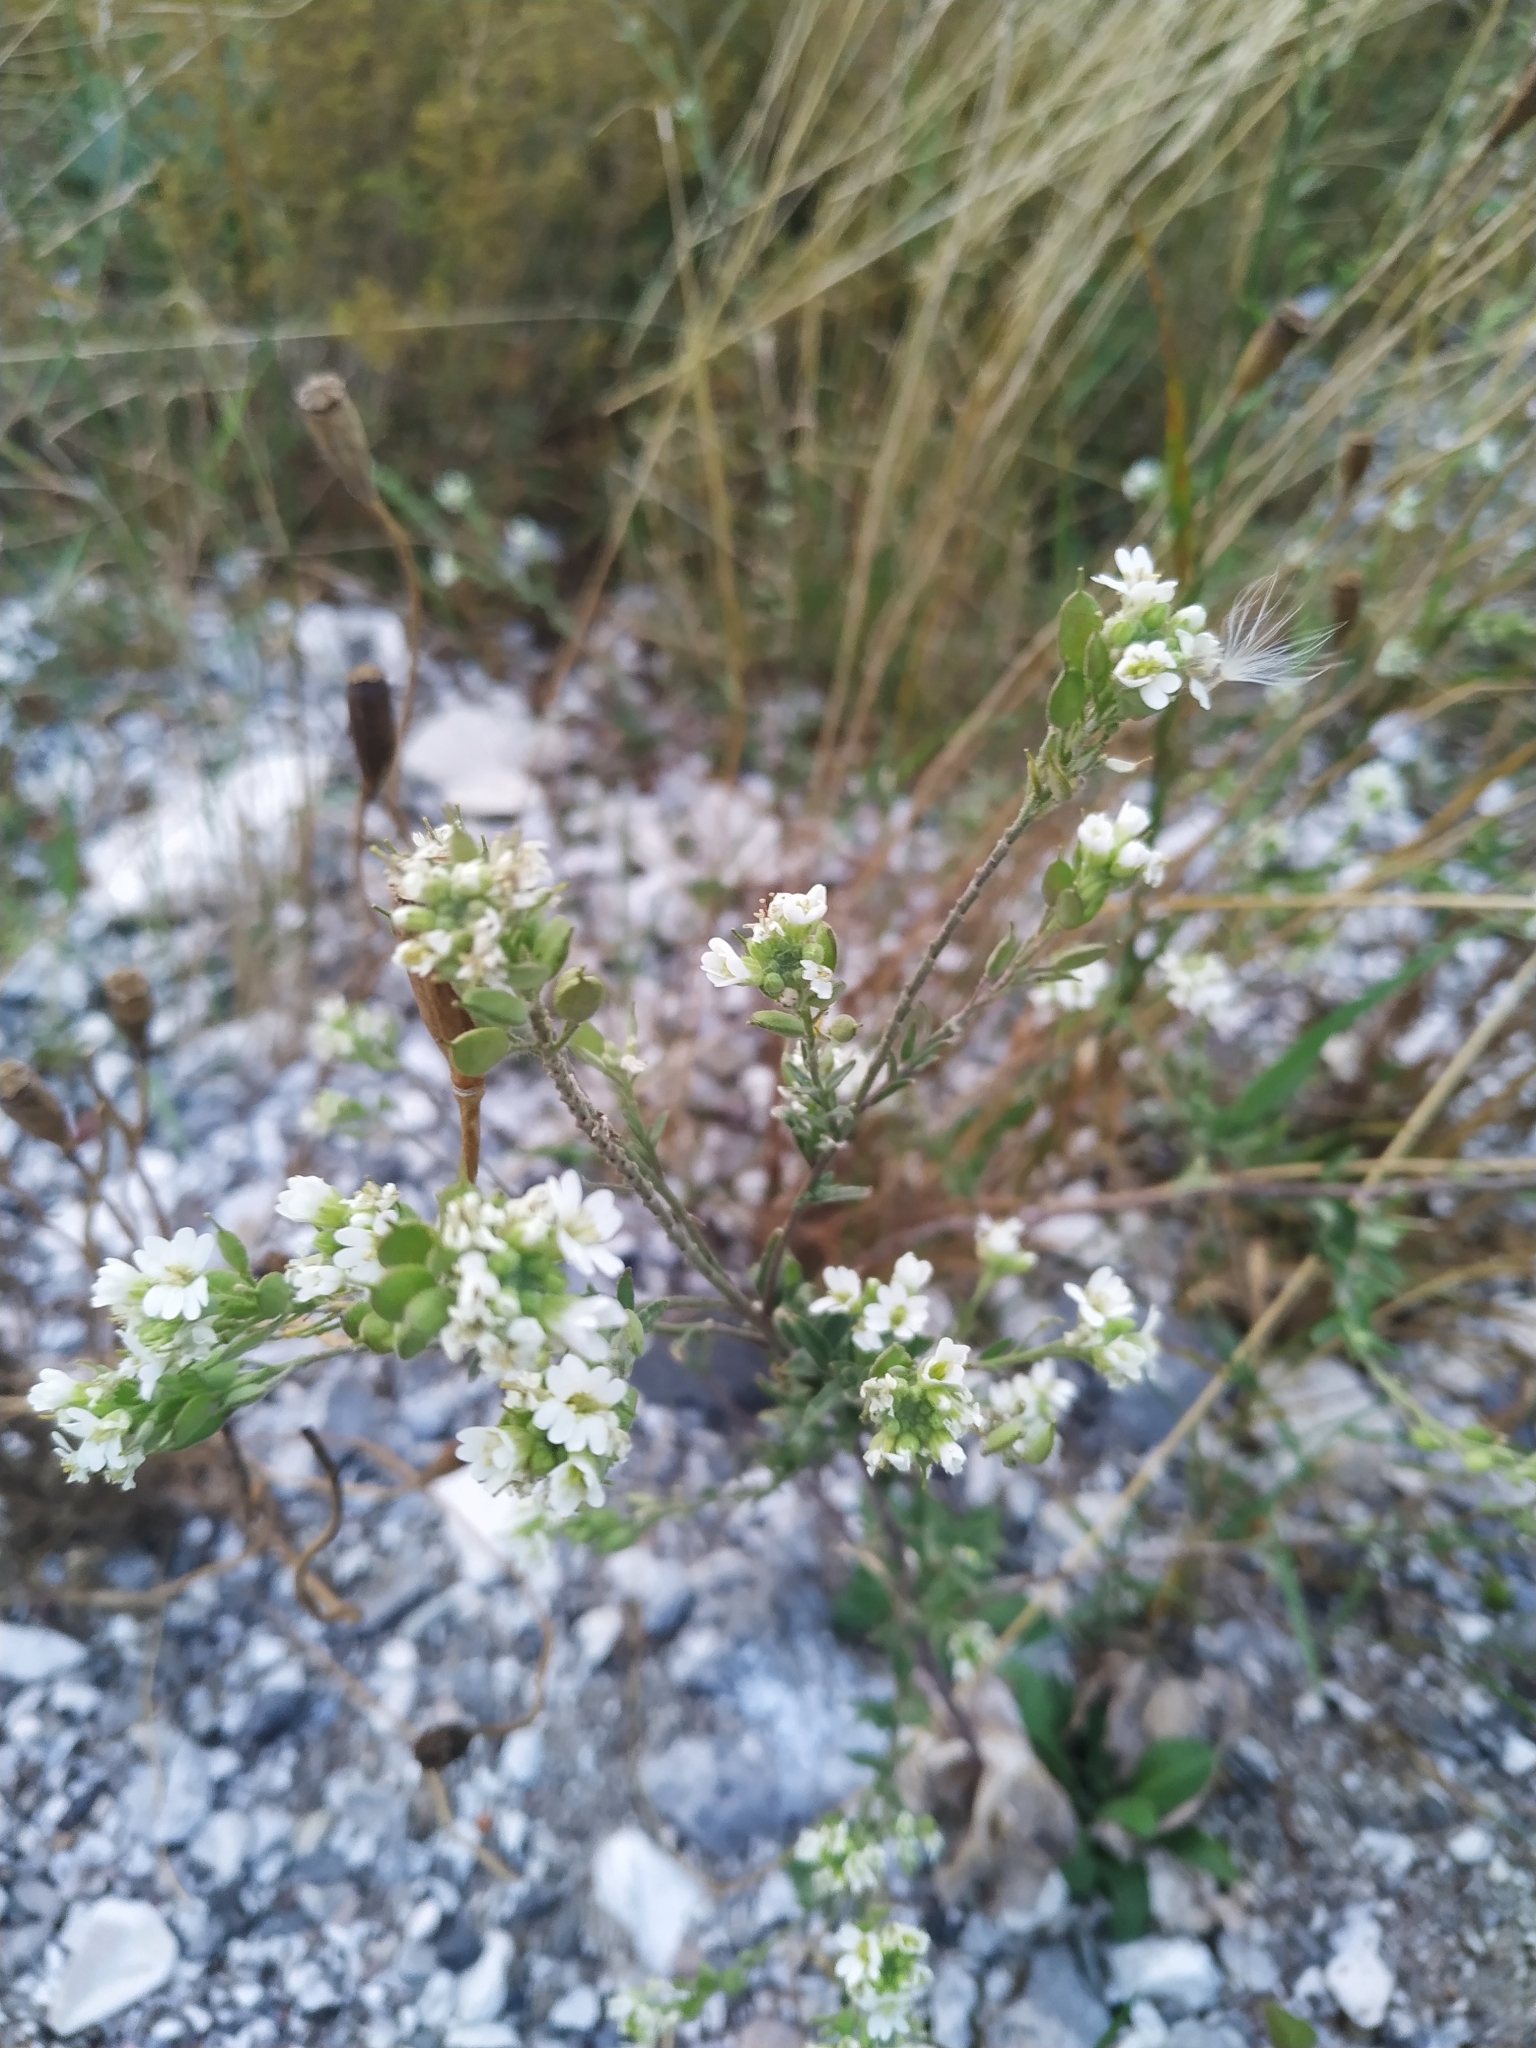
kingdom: Plantae
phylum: Tracheophyta
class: Magnoliopsida
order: Brassicales
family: Brassicaceae
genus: Berteroa
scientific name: Berteroa incana
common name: Hoary alison
